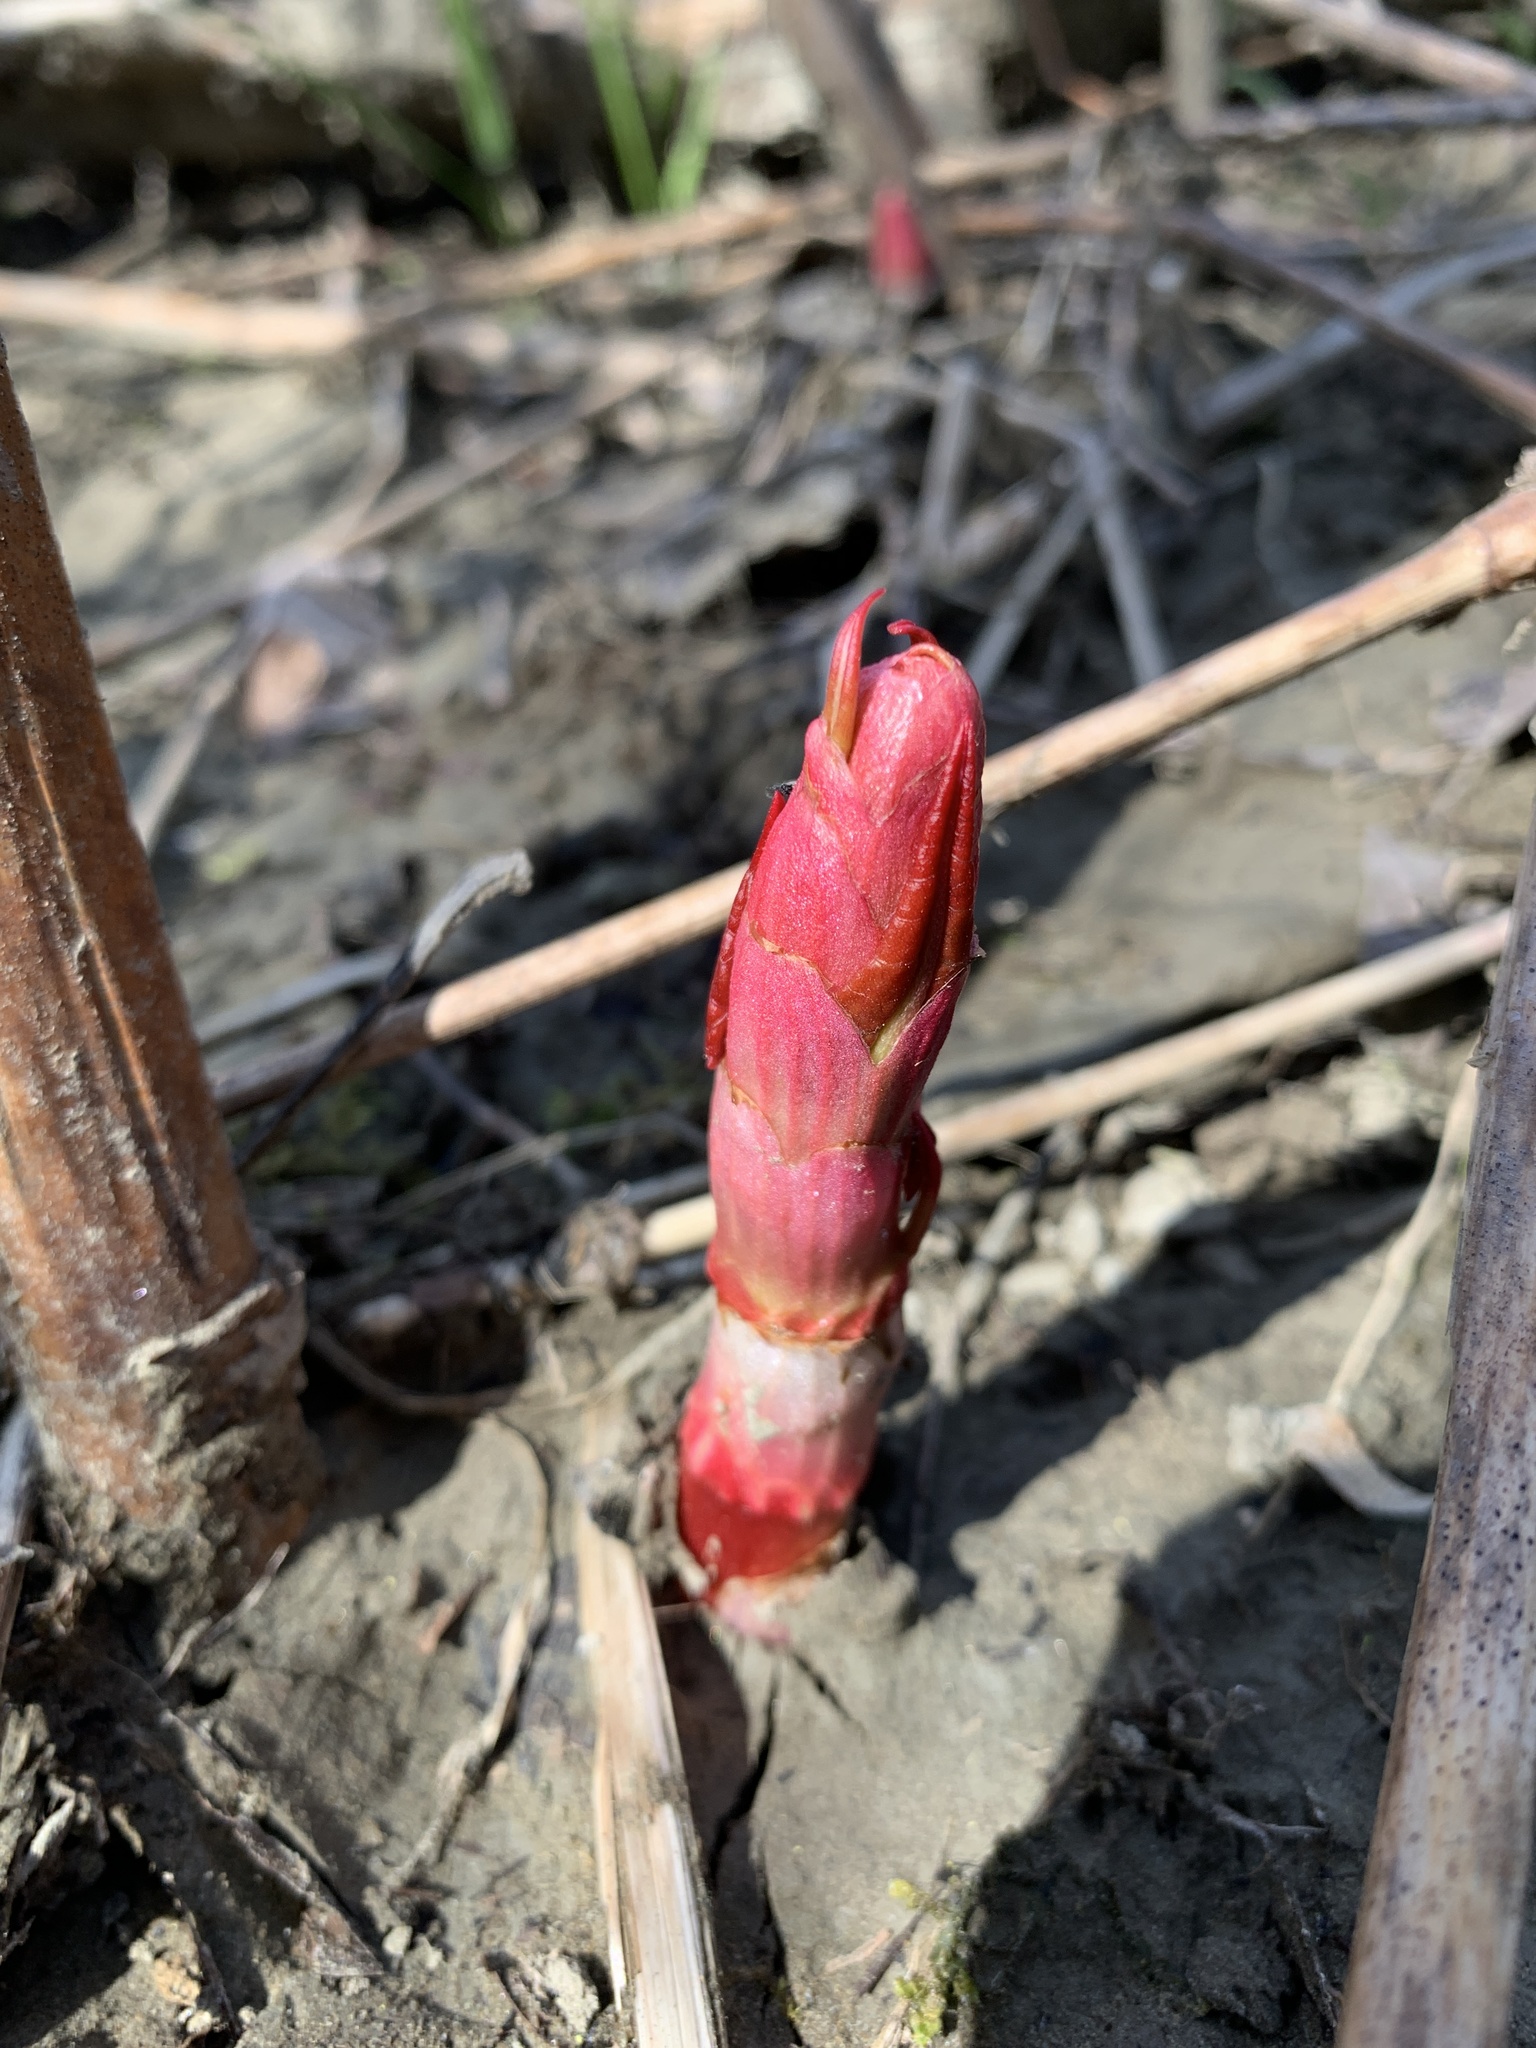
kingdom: Plantae
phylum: Tracheophyta
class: Magnoliopsida
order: Caryophyllales
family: Polygonaceae
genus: Reynoutria
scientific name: Reynoutria japonica
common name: Japanese knotweed
